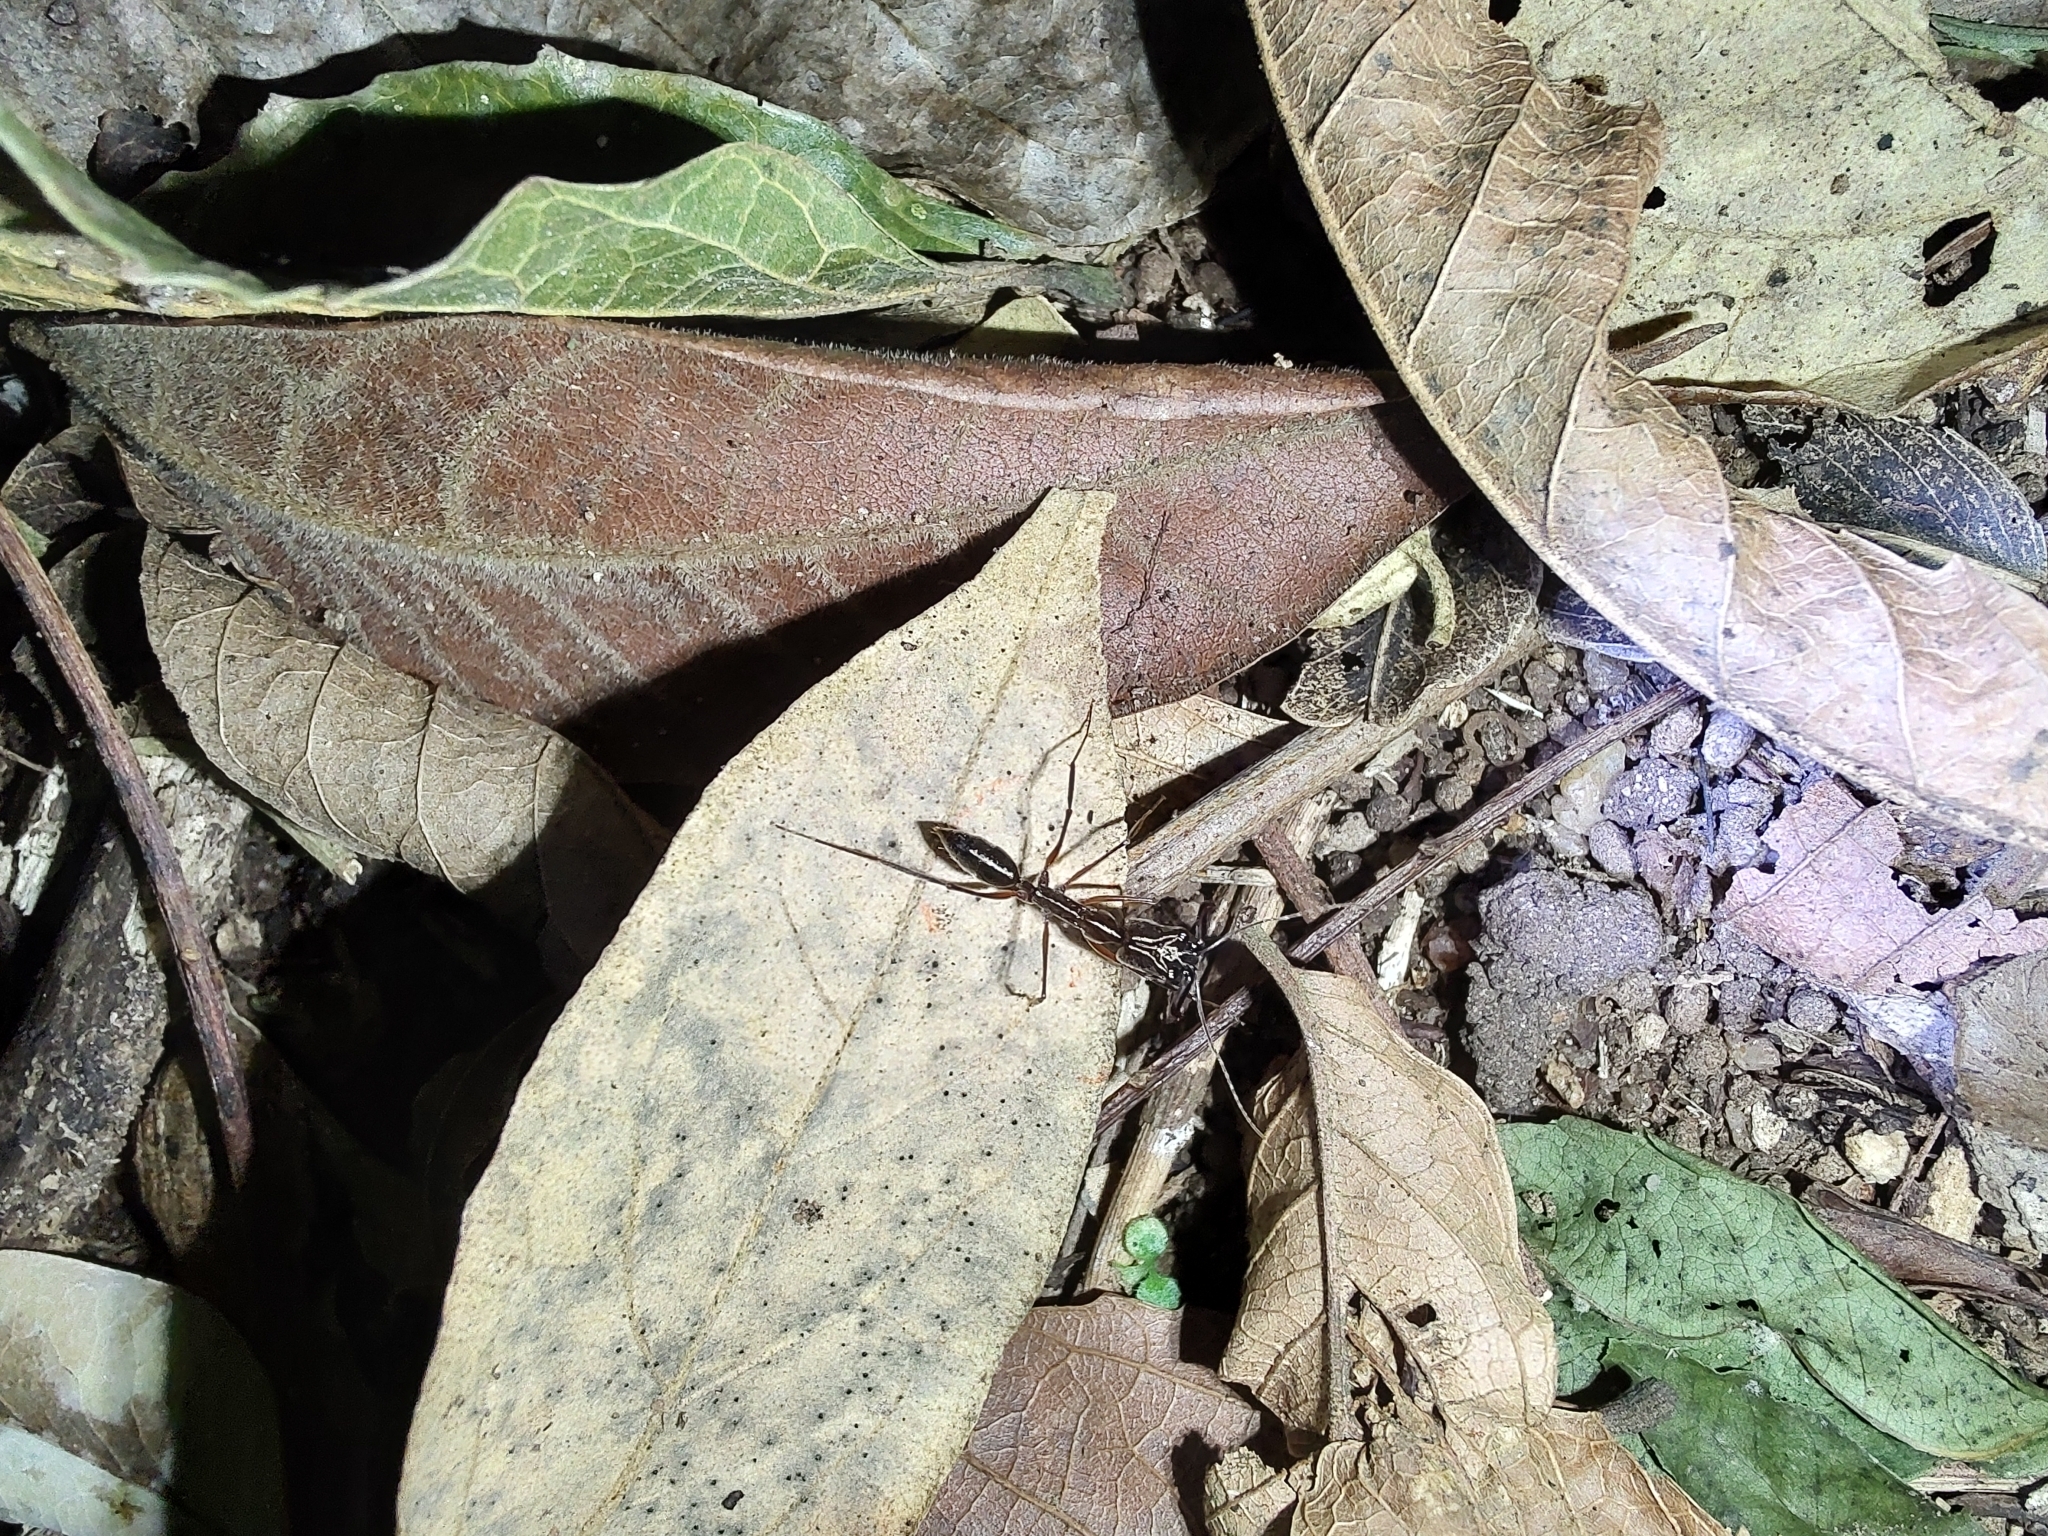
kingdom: Animalia
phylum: Arthropoda
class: Insecta
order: Hymenoptera
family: Formicidae
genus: Odontomachus
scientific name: Odontomachus chelifer
